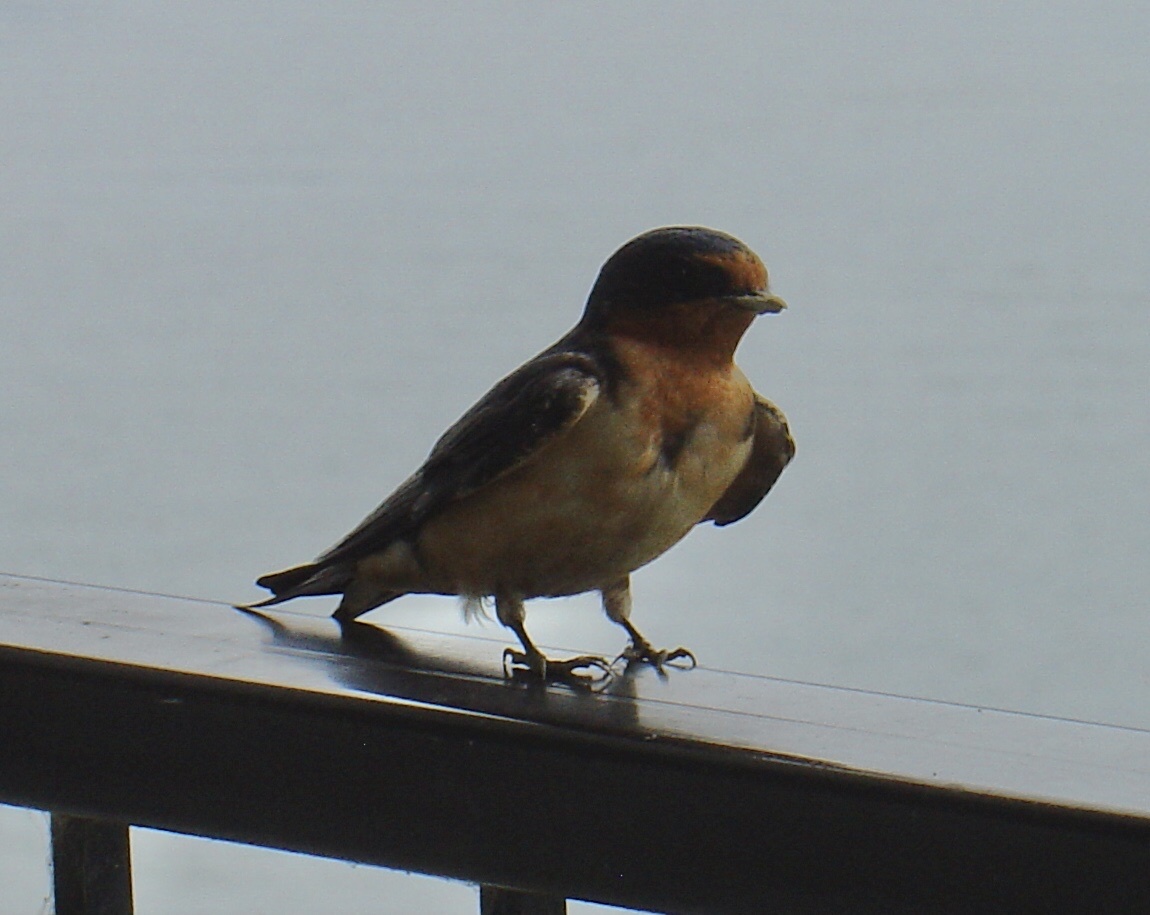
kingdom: Animalia
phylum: Chordata
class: Aves
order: Passeriformes
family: Hirundinidae
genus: Hirundo
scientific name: Hirundo rustica
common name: Barn swallow
